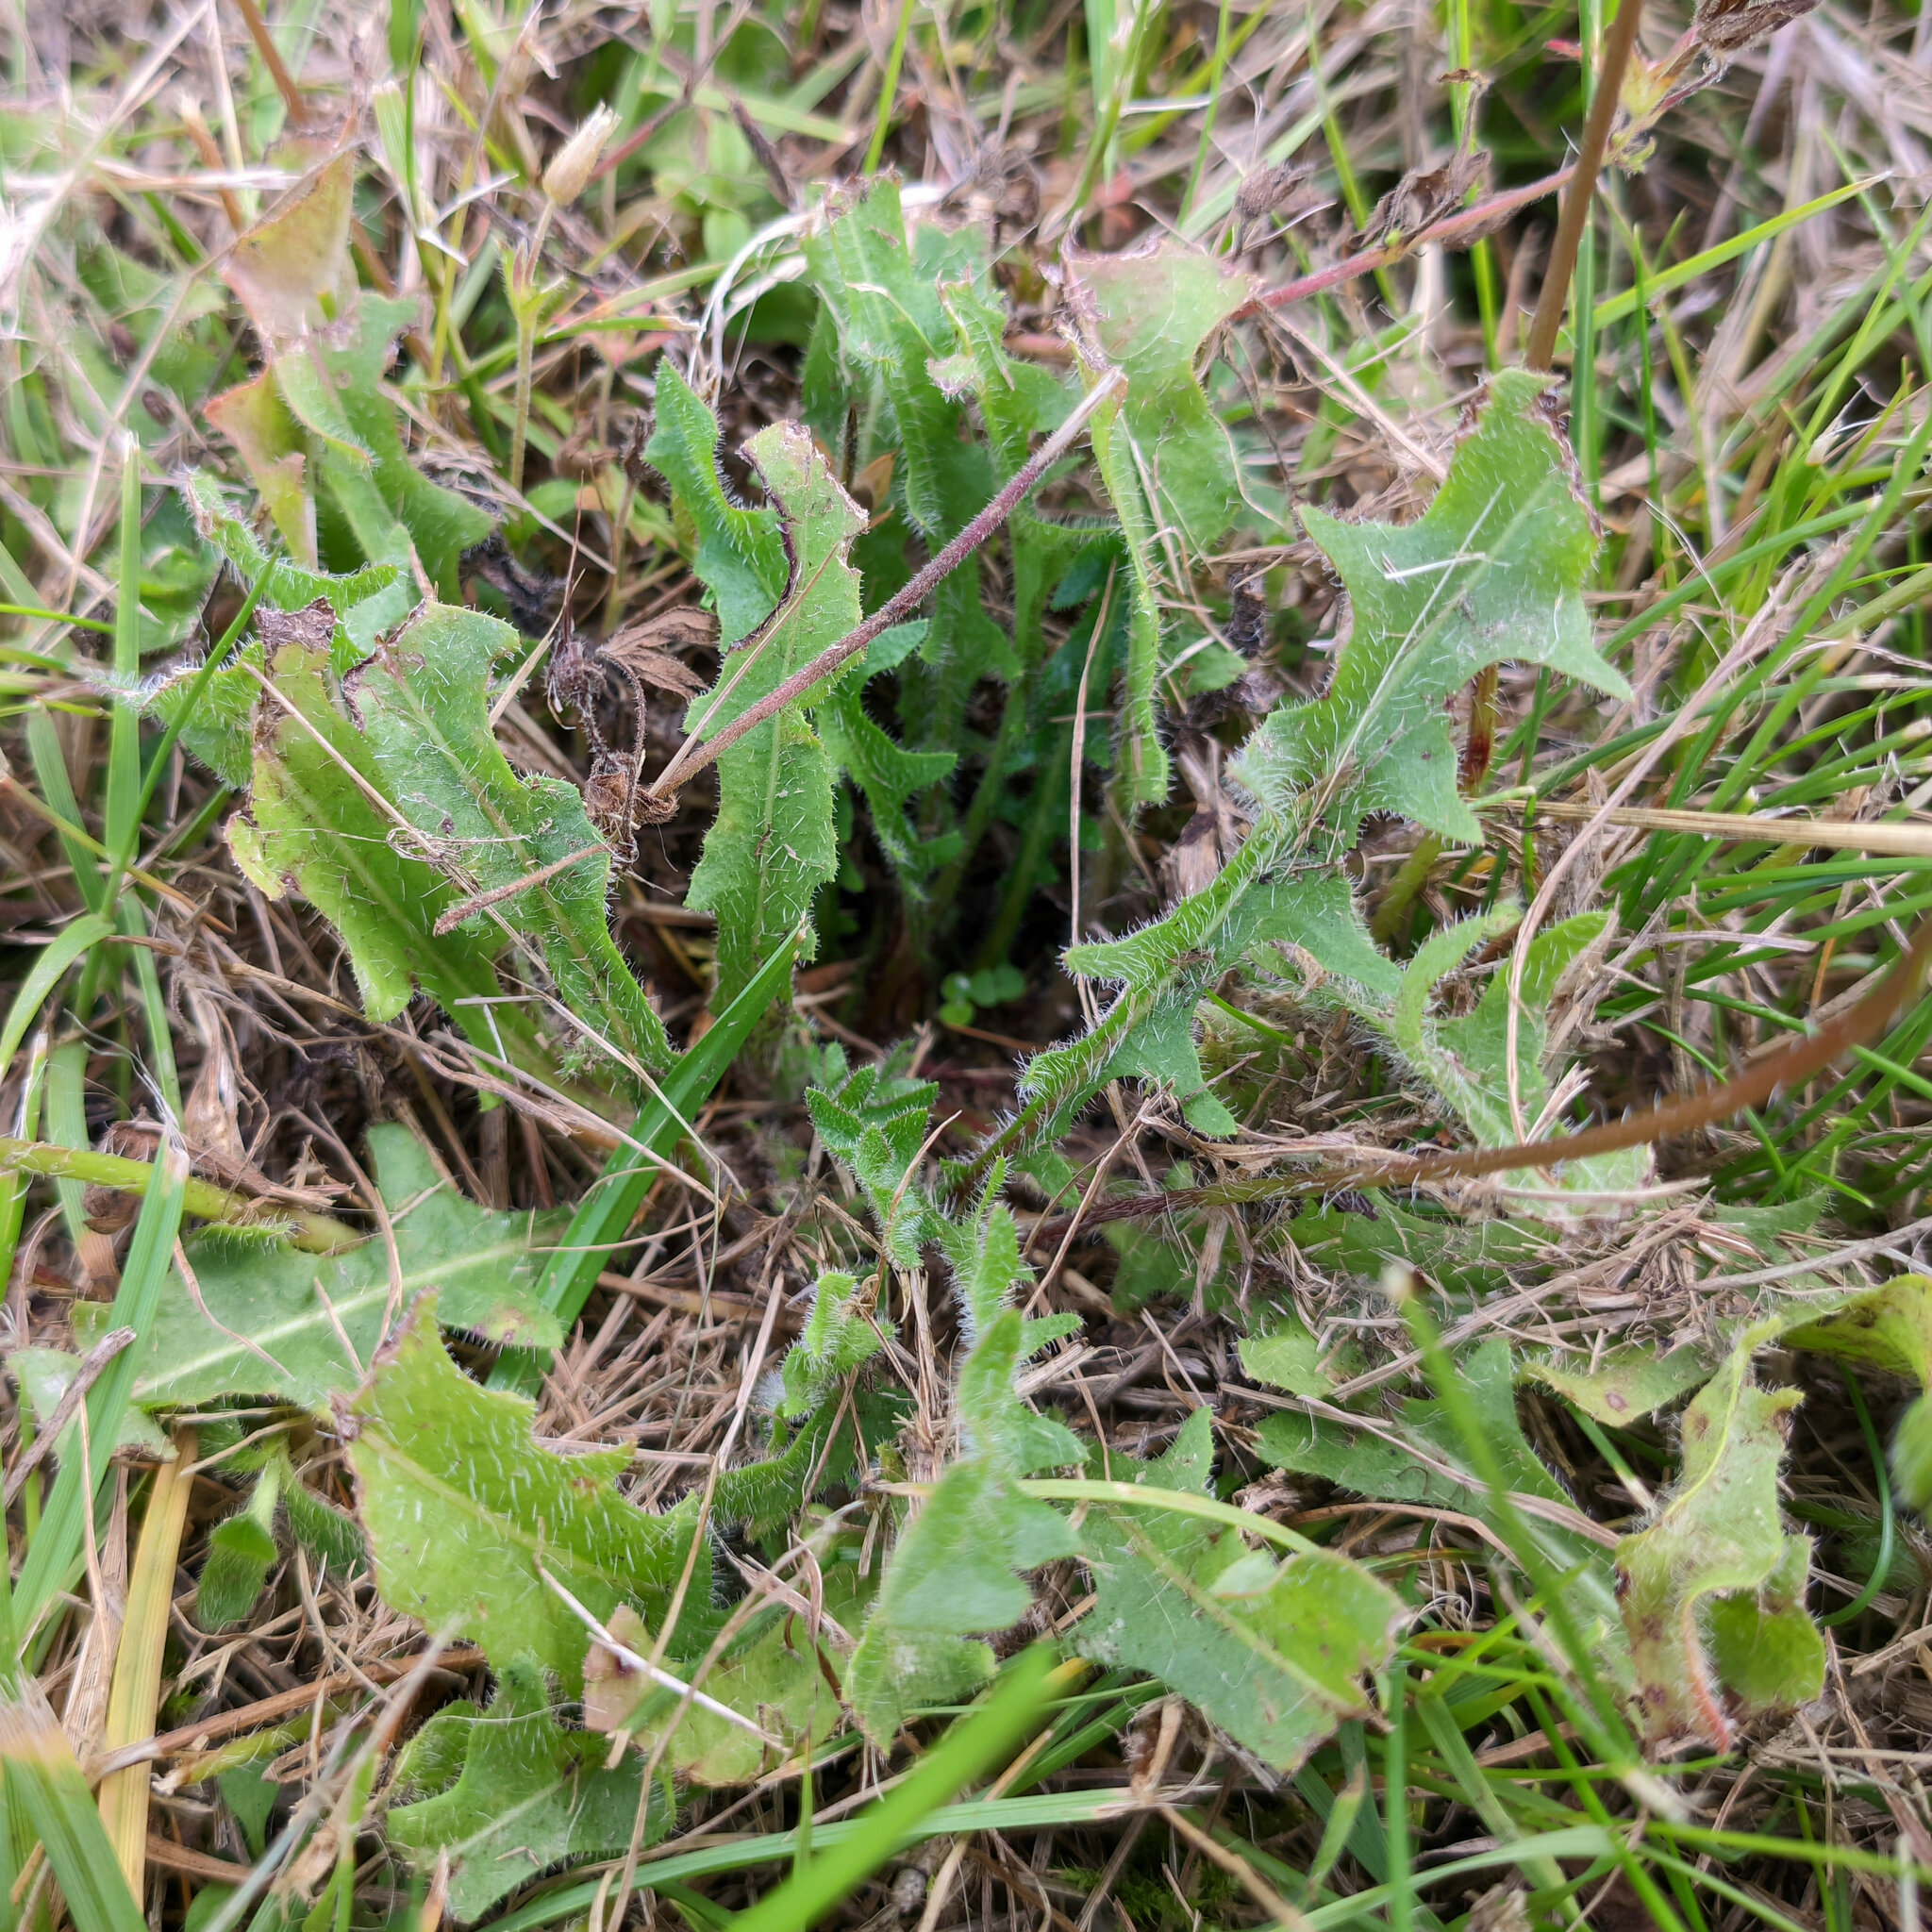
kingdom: Plantae
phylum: Tracheophyta
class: Magnoliopsida
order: Asterales
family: Asteraceae
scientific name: Asteraceae
